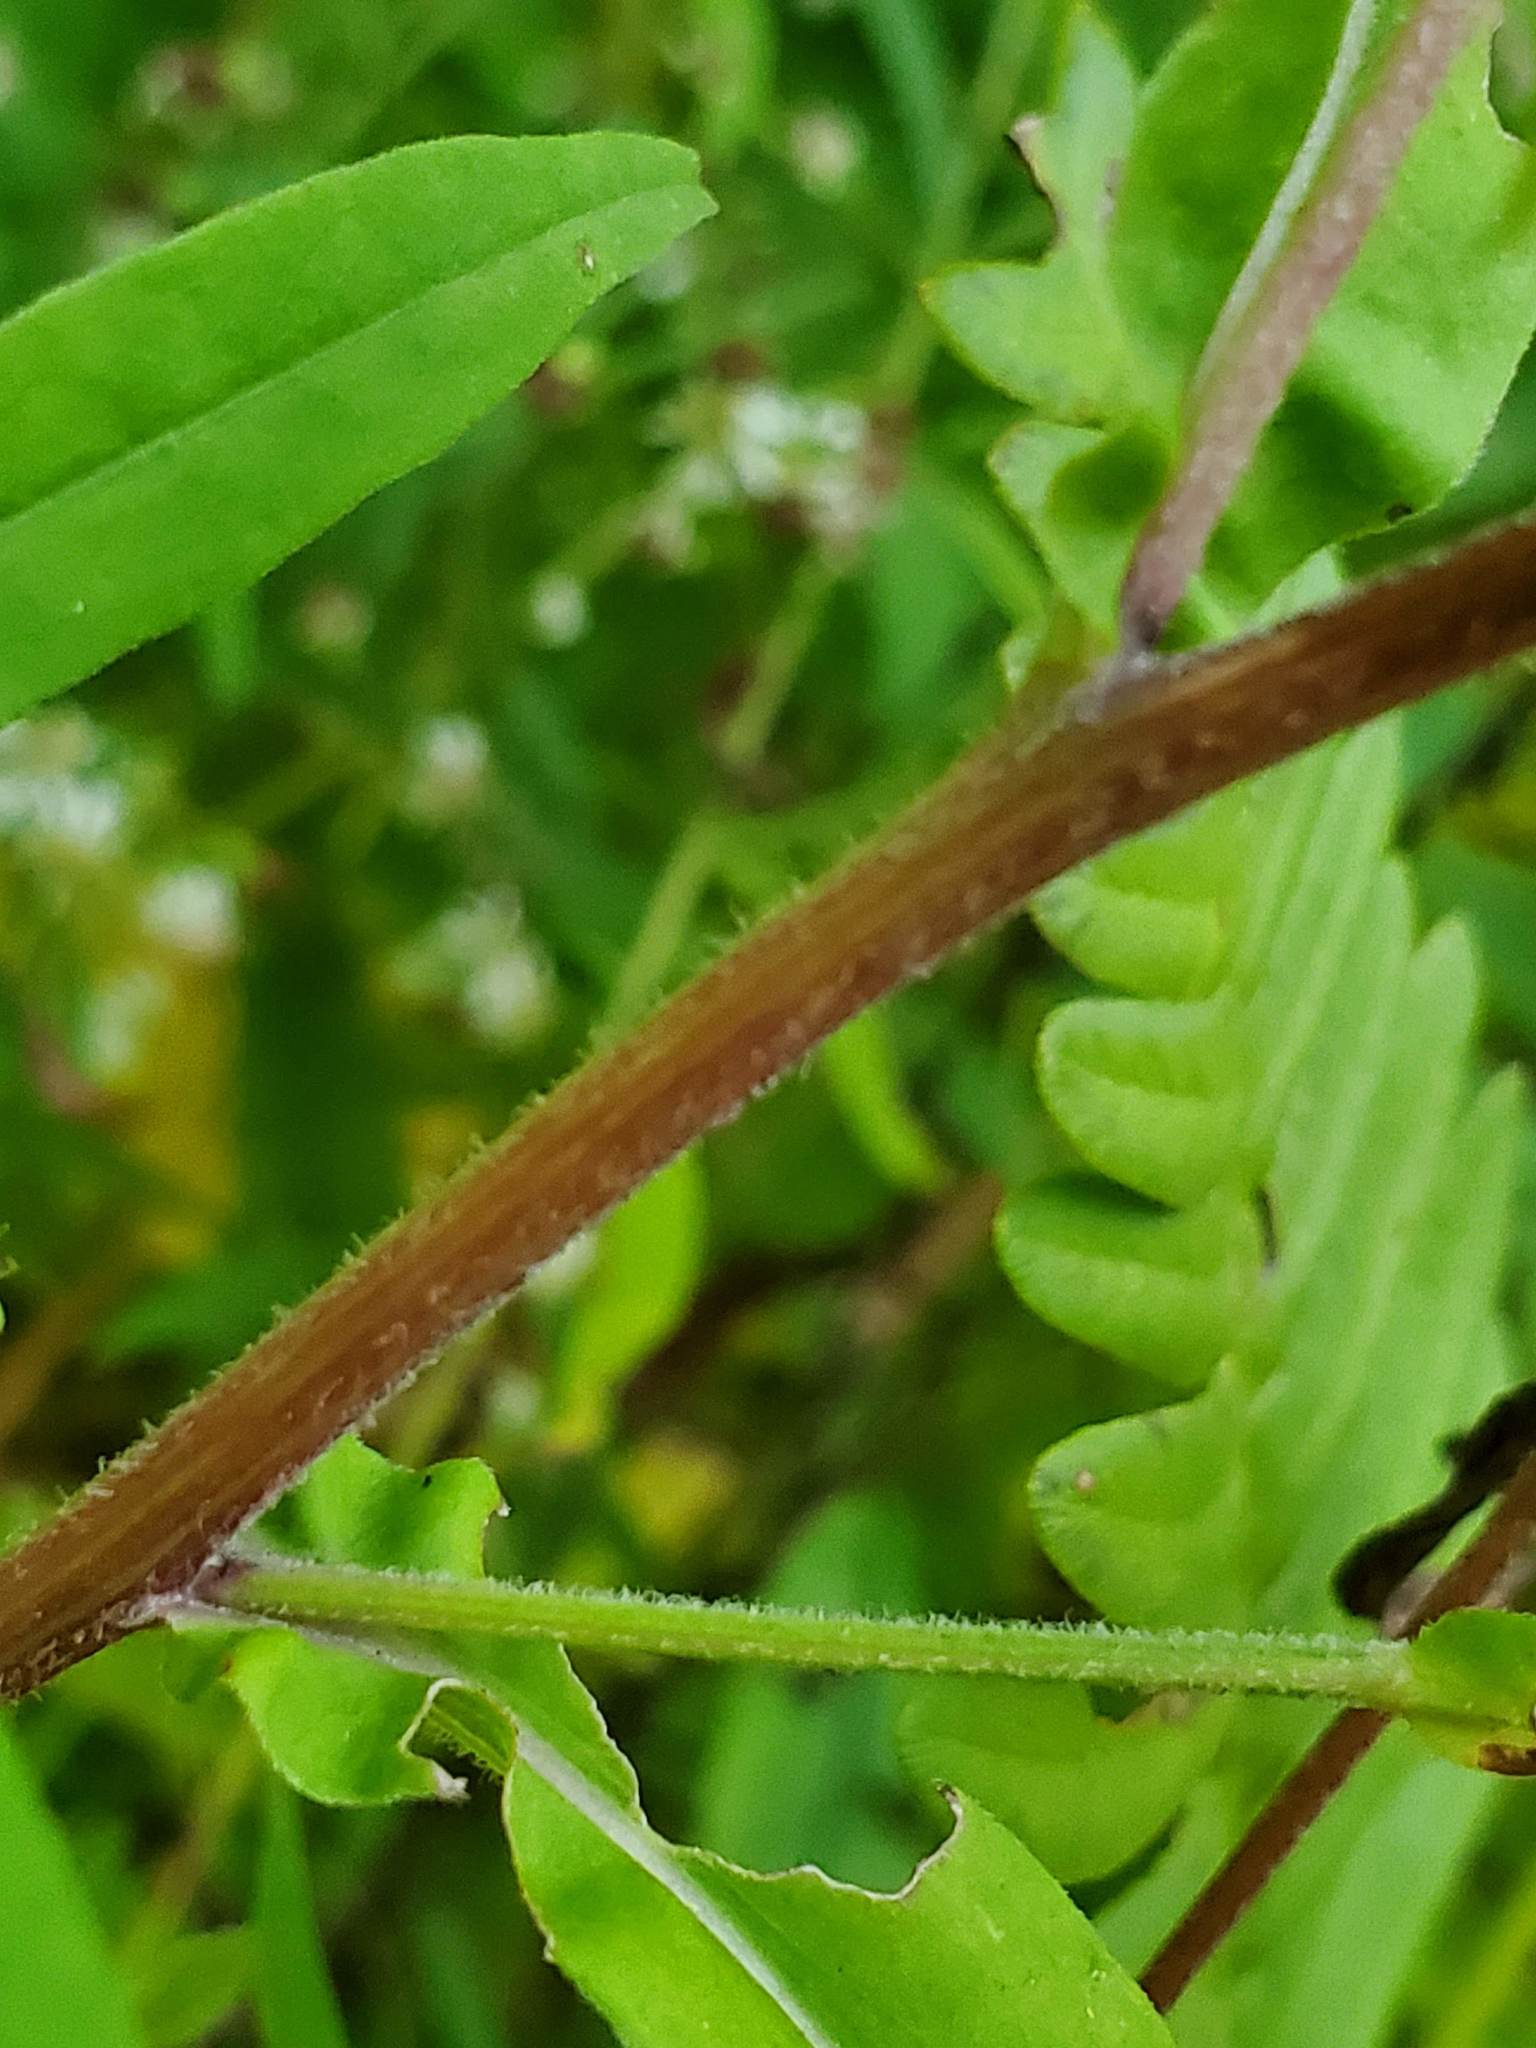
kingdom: Plantae
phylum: Tracheophyta
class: Magnoliopsida
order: Asterales
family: Asteraceae
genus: Symphyotrichum
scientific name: Symphyotrichum lateriflorum
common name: Calico aster
